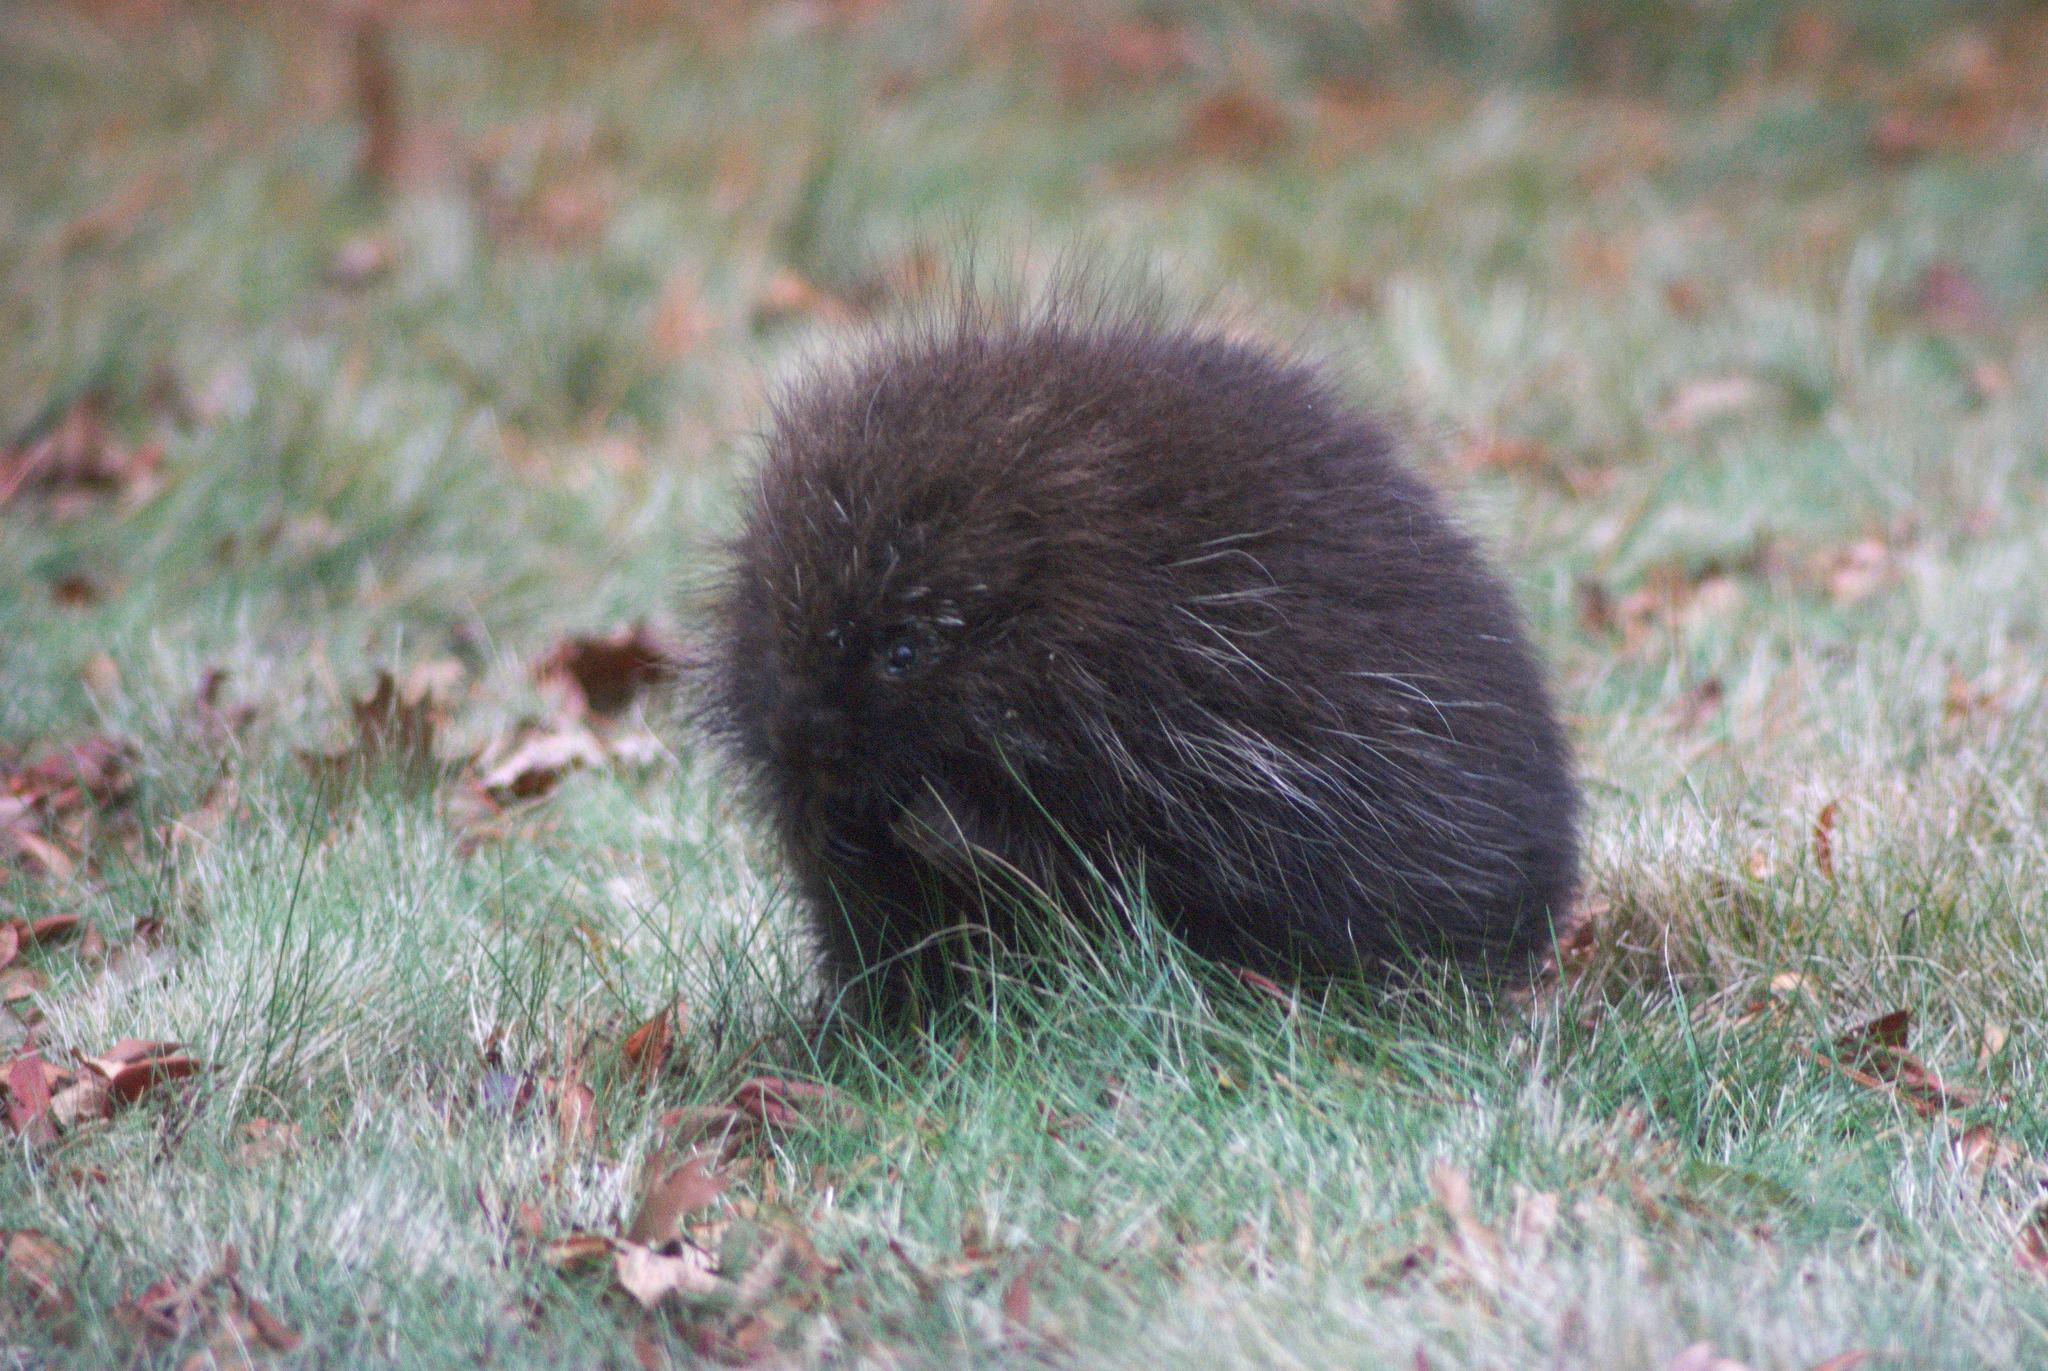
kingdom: Animalia
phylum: Chordata
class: Mammalia
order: Rodentia
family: Erethizontidae
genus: Erethizon
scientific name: Erethizon dorsatus
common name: North american porcupine
